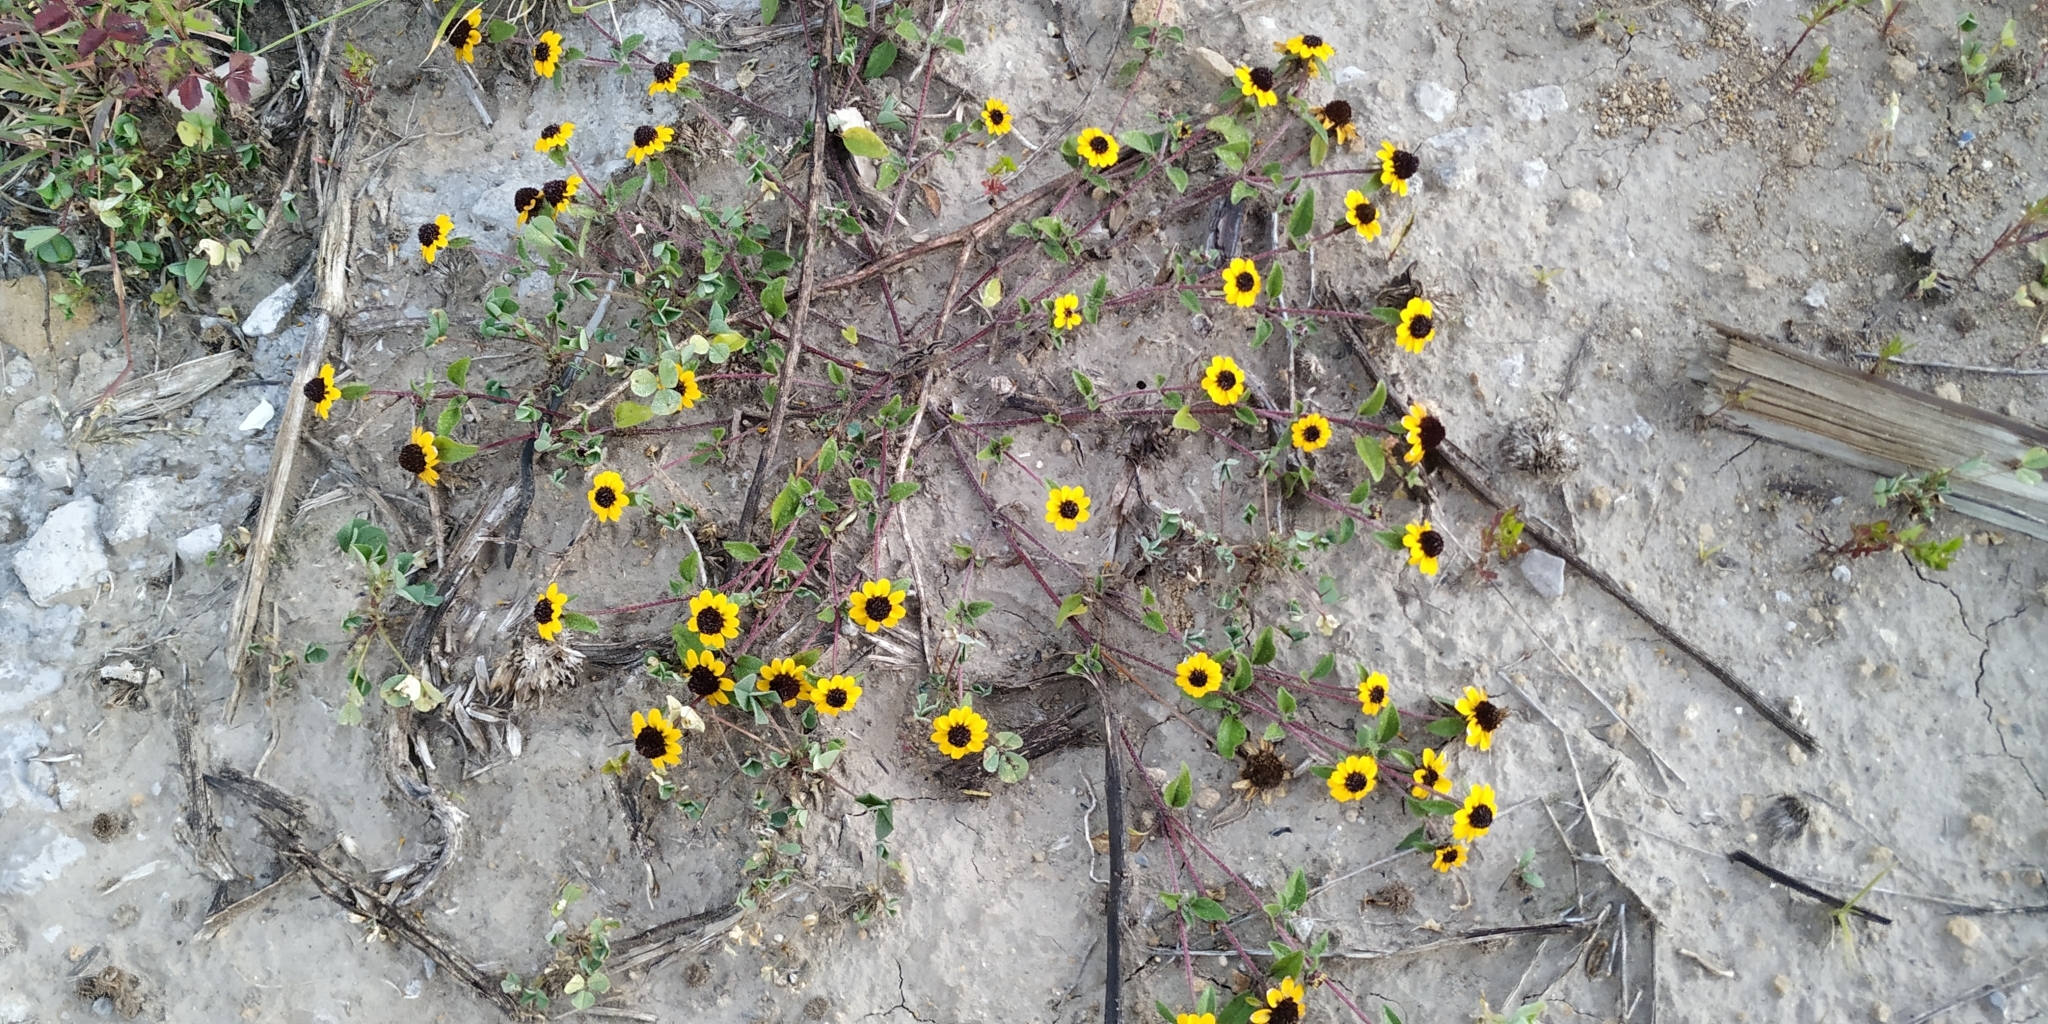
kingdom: Plantae
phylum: Tracheophyta
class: Magnoliopsida
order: Asterales
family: Asteraceae
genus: Sanvitalia
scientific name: Sanvitalia procumbens
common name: Mexican creeping zinnia
